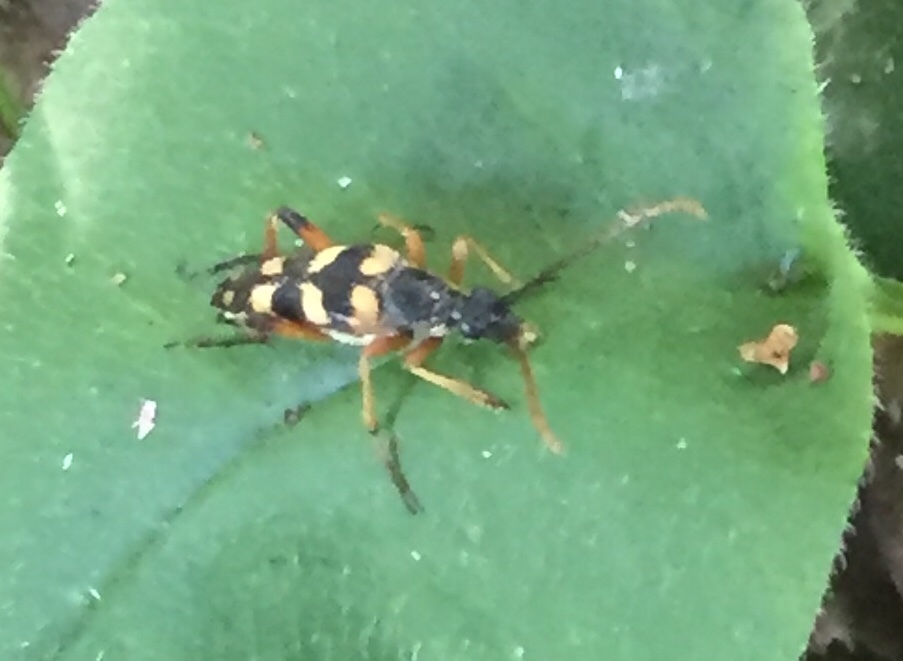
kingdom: Animalia
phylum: Arthropoda
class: Insecta
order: Coleoptera
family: Cerambycidae
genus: Strangalia
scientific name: Strangalia attenuata
